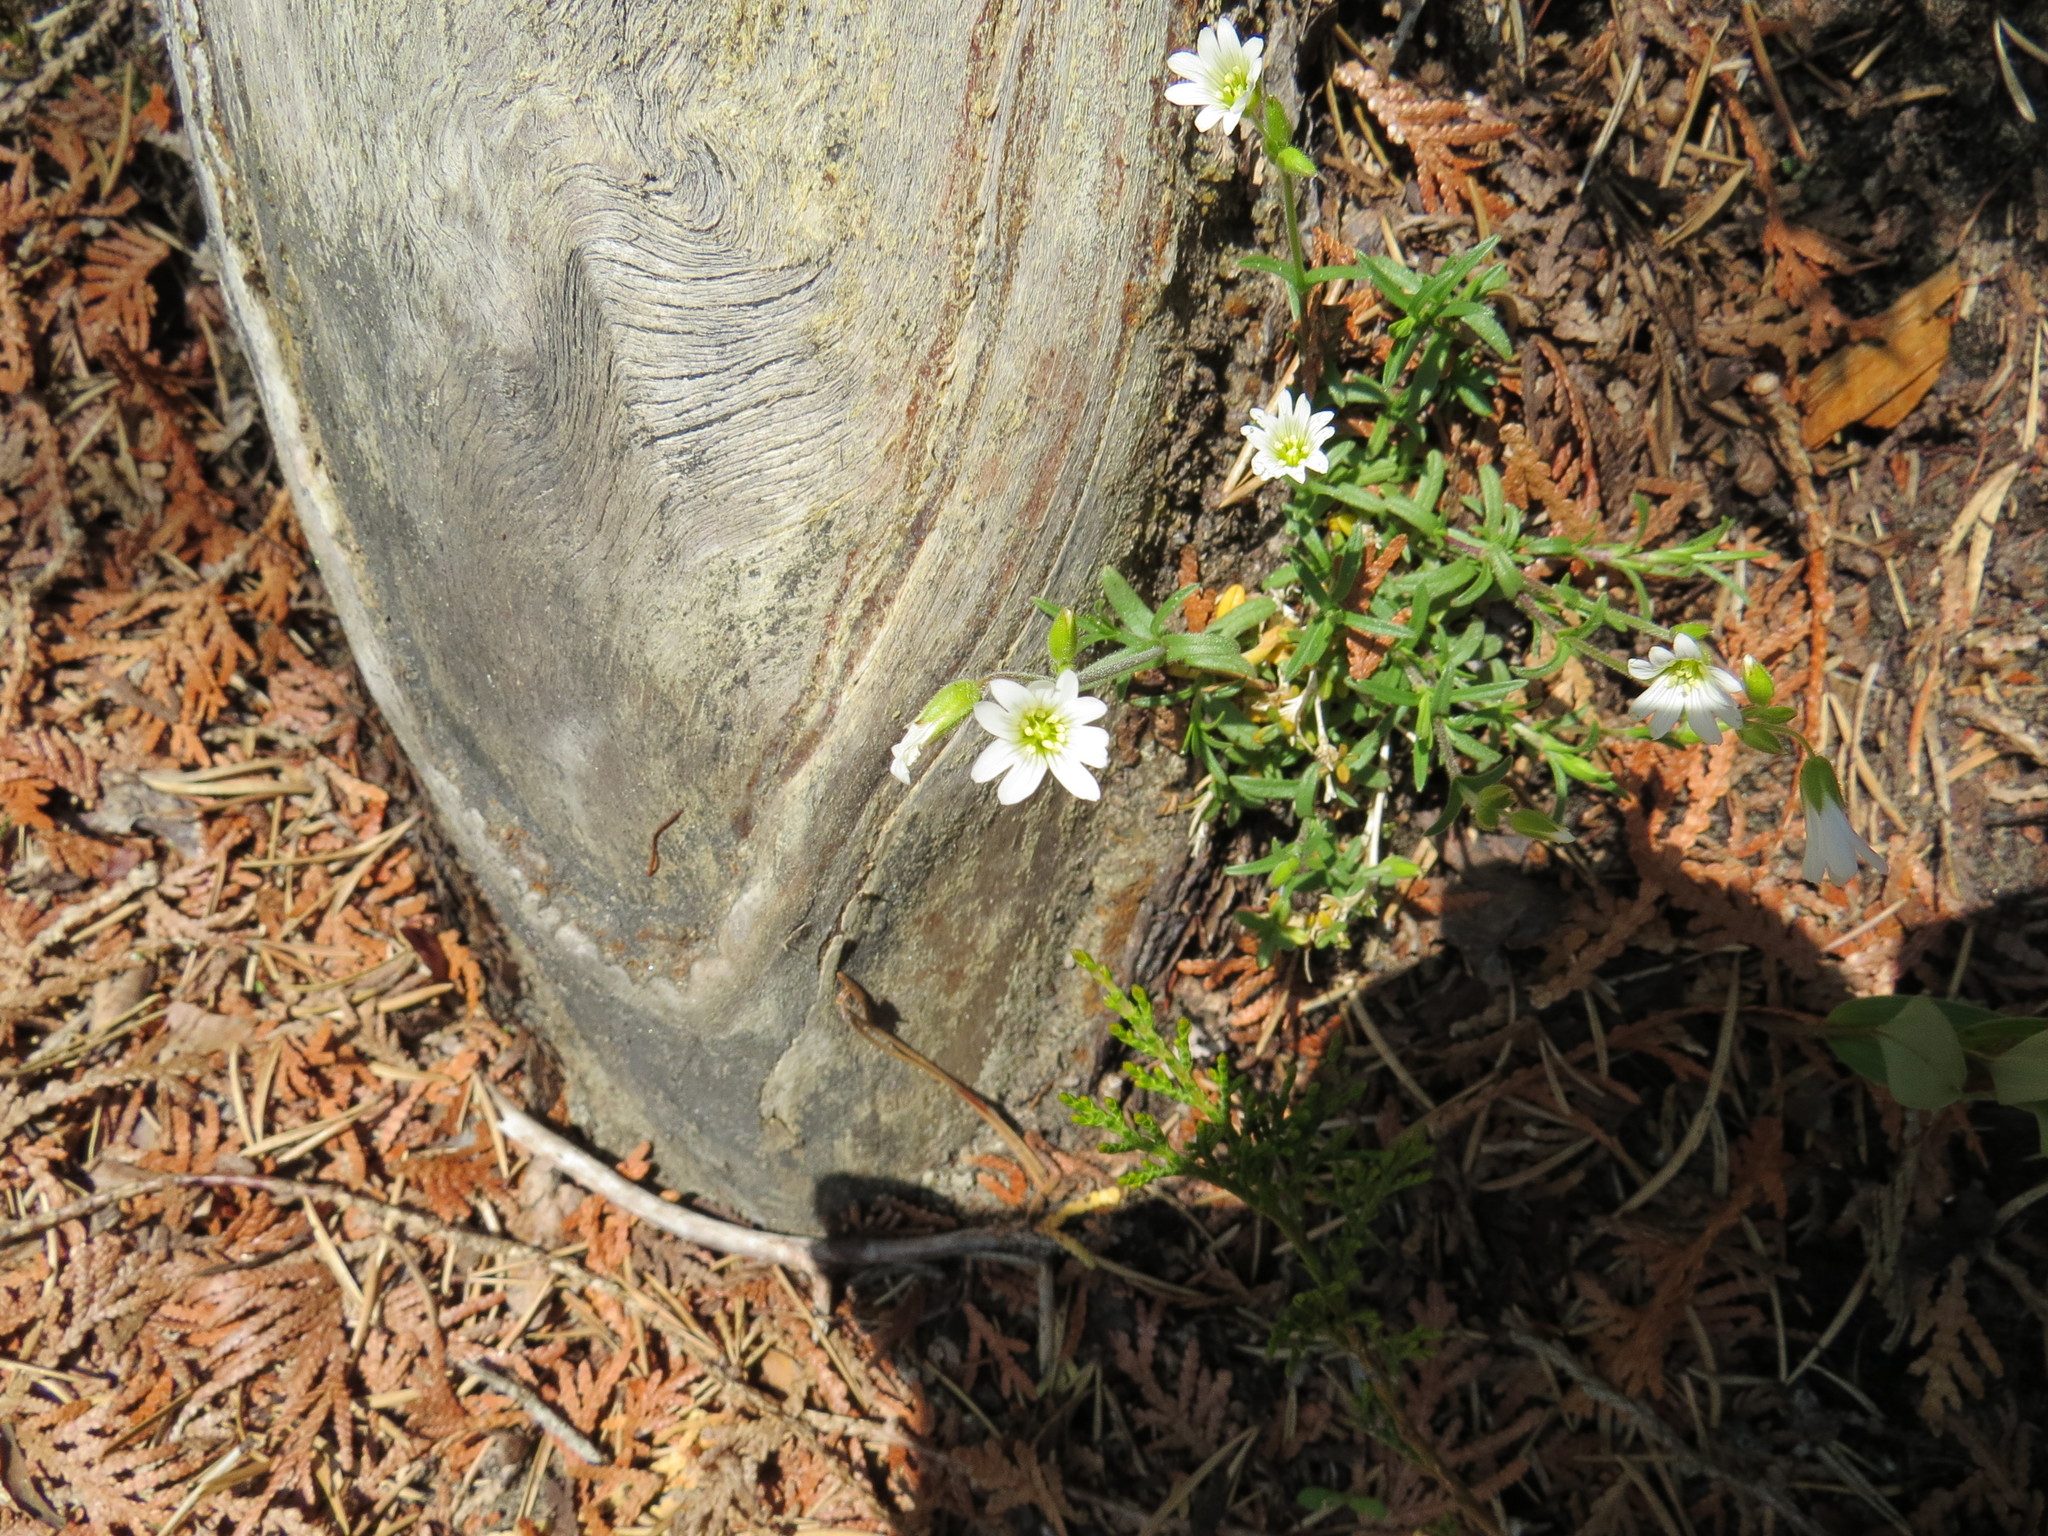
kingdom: Plantae
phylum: Tracheophyta
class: Magnoliopsida
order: Caryophyllales
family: Caryophyllaceae
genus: Cerastium
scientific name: Cerastium arvense
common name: Field mouse-ear
